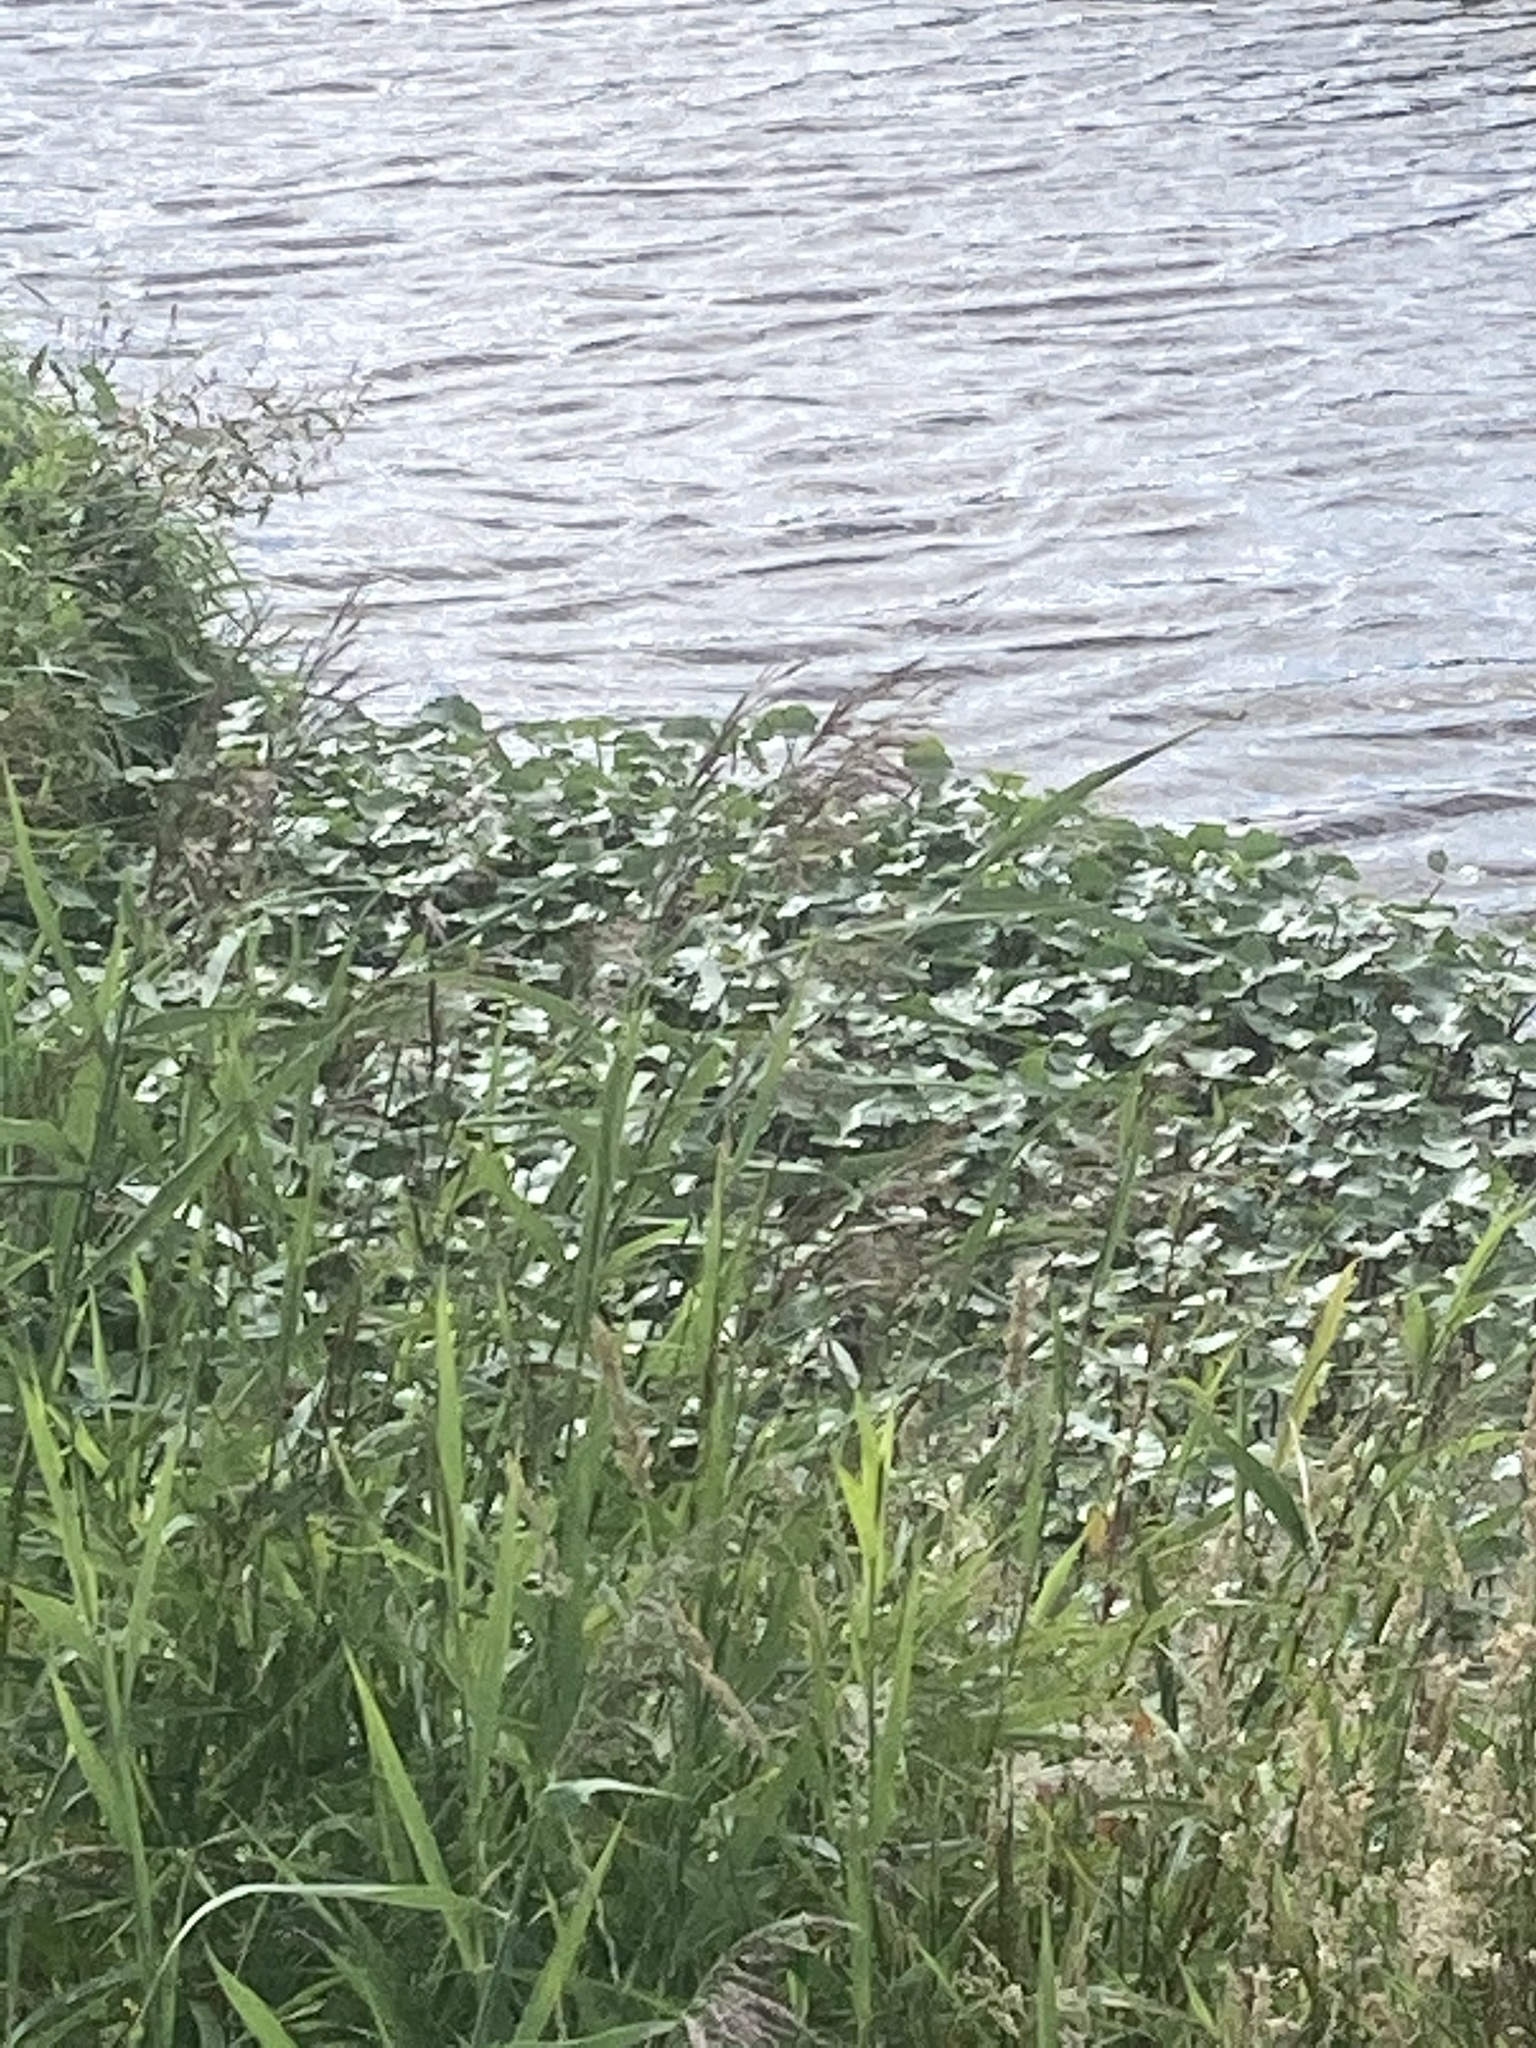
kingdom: Plantae
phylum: Tracheophyta
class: Magnoliopsida
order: Apiales
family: Araliaceae
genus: Hydrocotyle
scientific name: Hydrocotyle ranunculoides
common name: Floating pennywort
